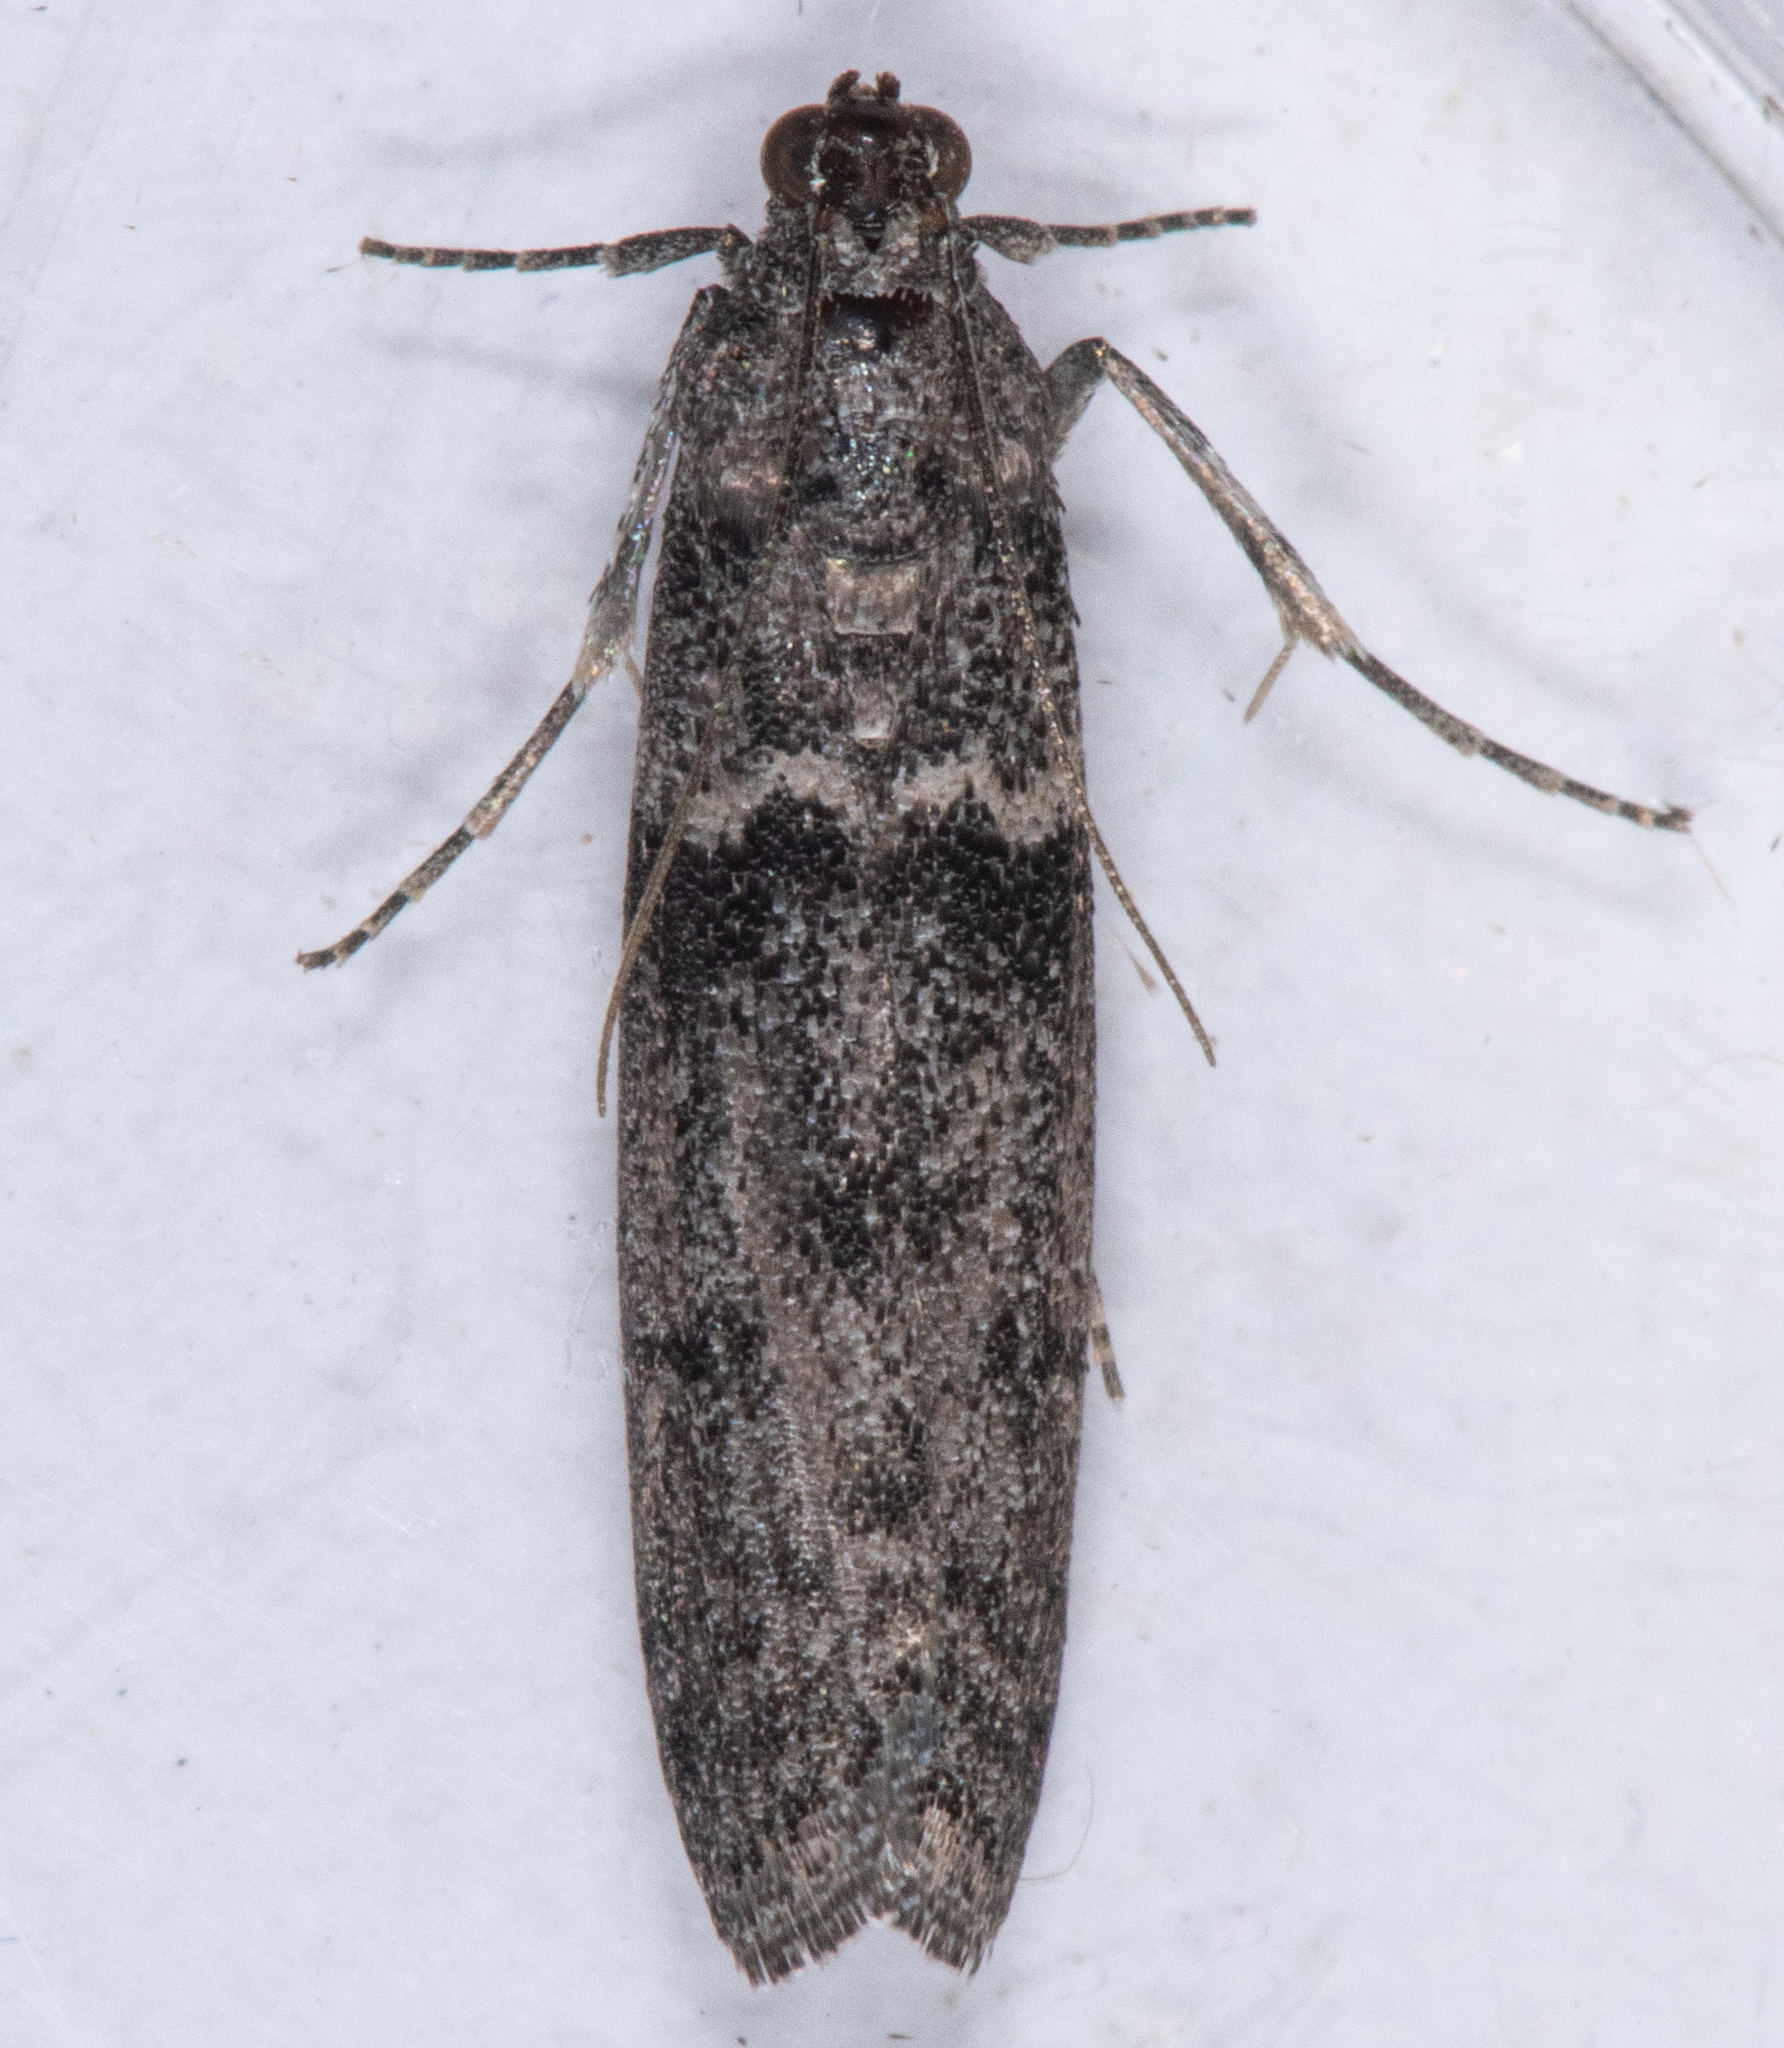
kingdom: Animalia
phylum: Arthropoda
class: Insecta
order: Lepidoptera
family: Pyralidae
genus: Myelopsis
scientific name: Myelopsis subtetricella
